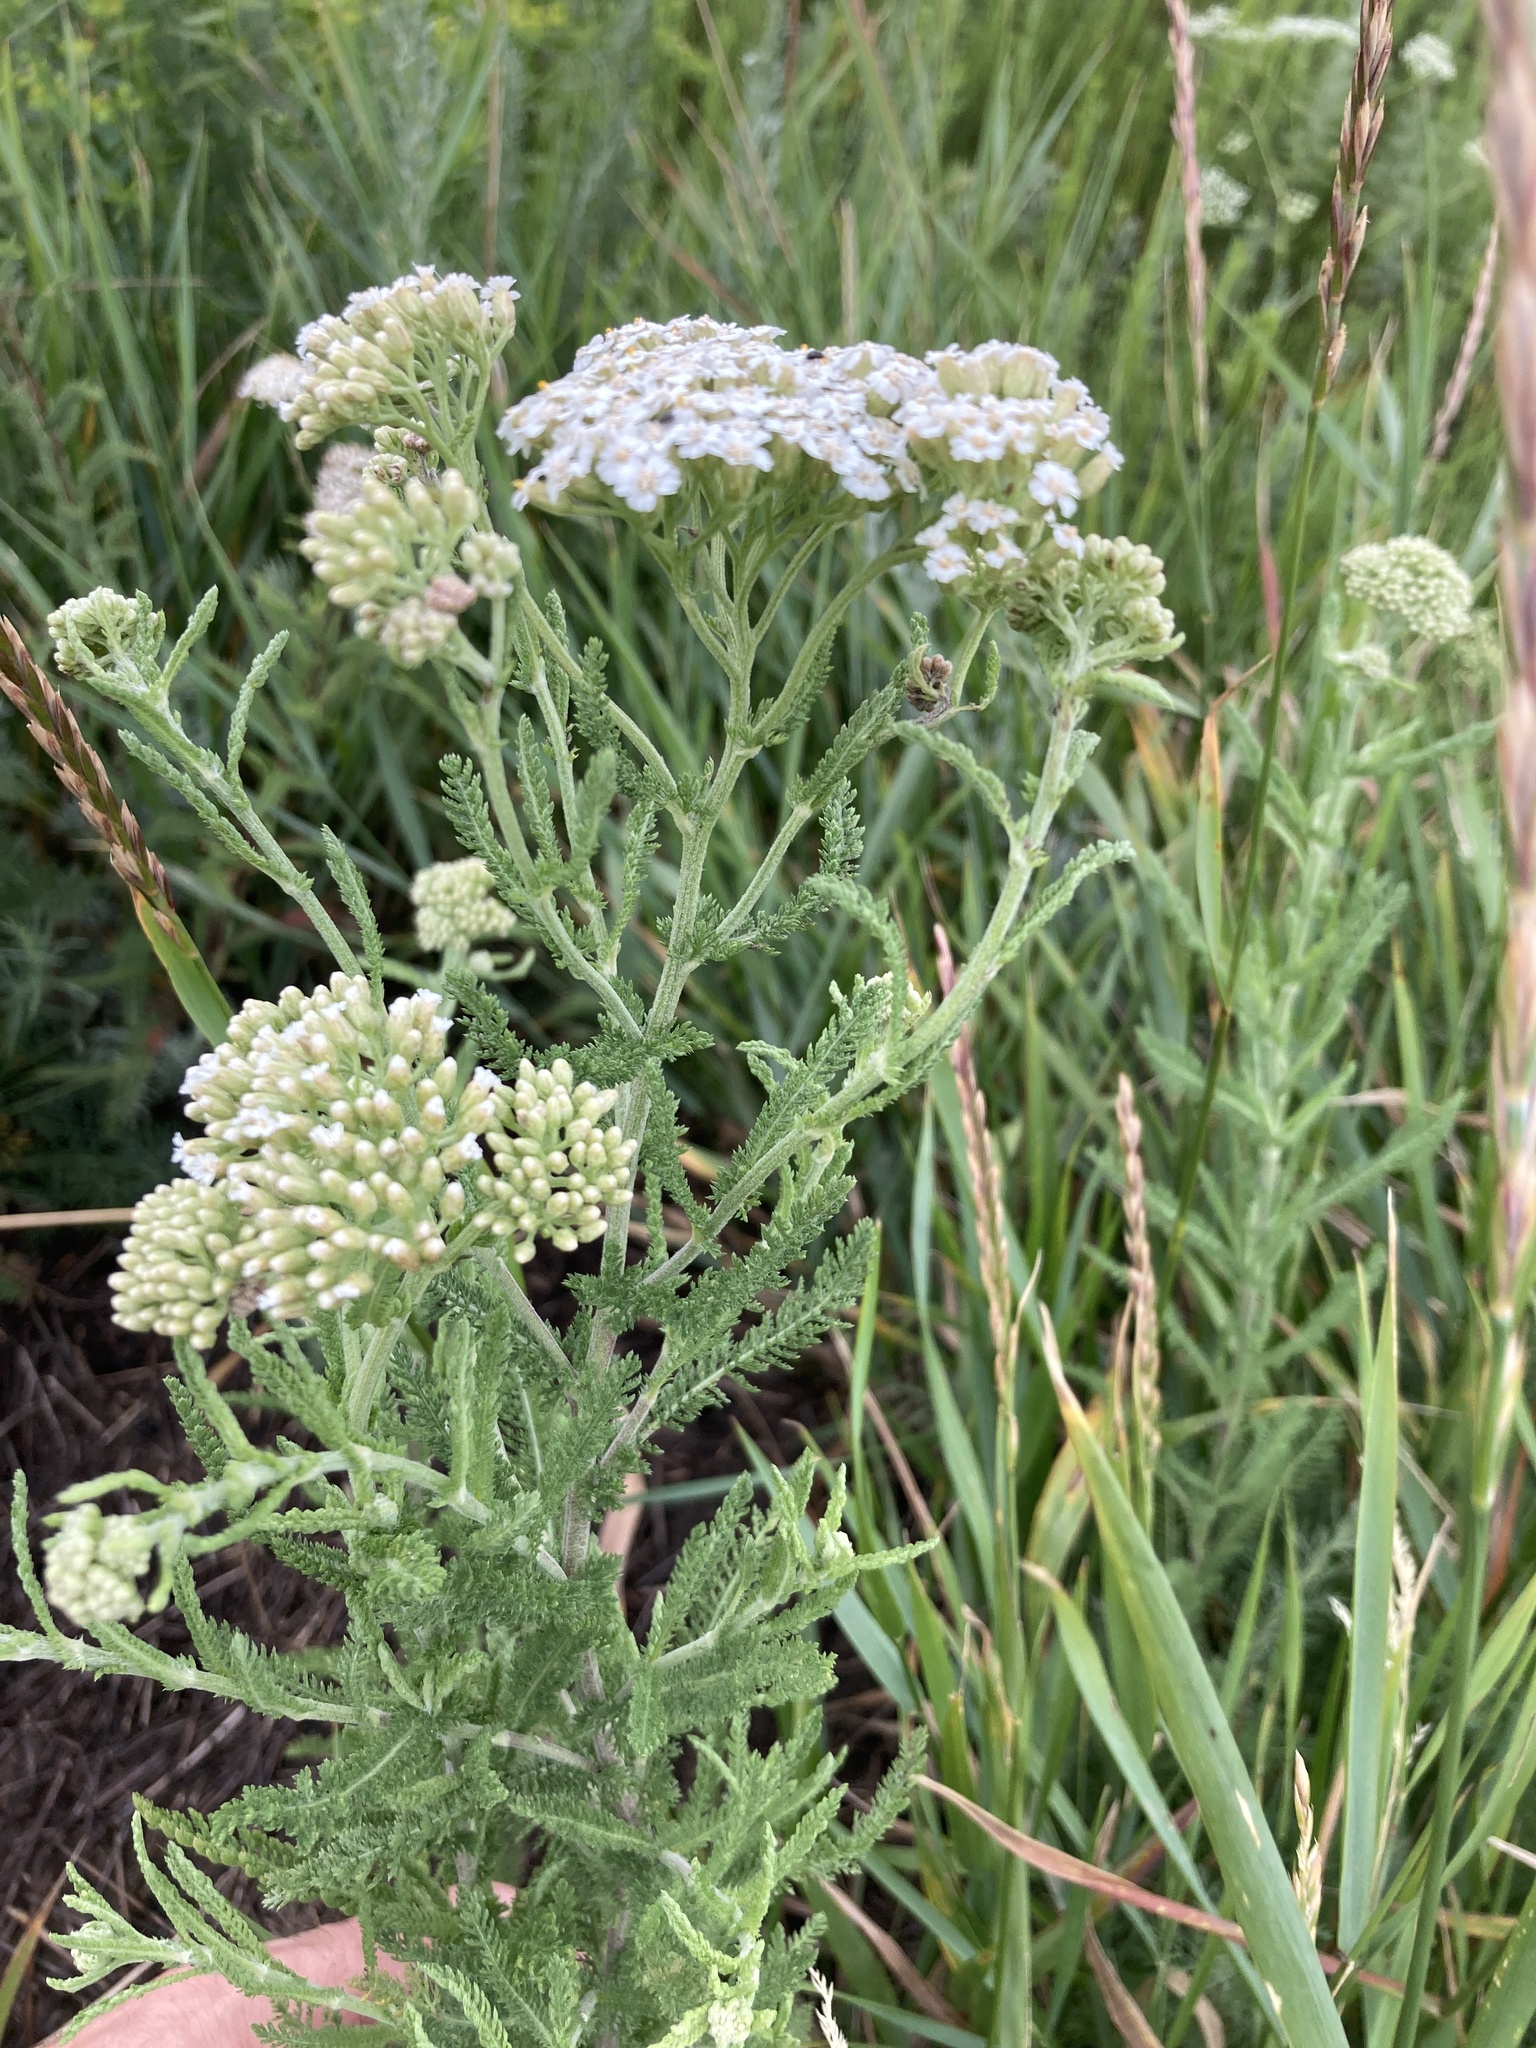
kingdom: Plantae
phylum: Tracheophyta
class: Magnoliopsida
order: Asterales
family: Asteraceae
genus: Achillea
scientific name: Achillea setacea
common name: Bristly yarrow
